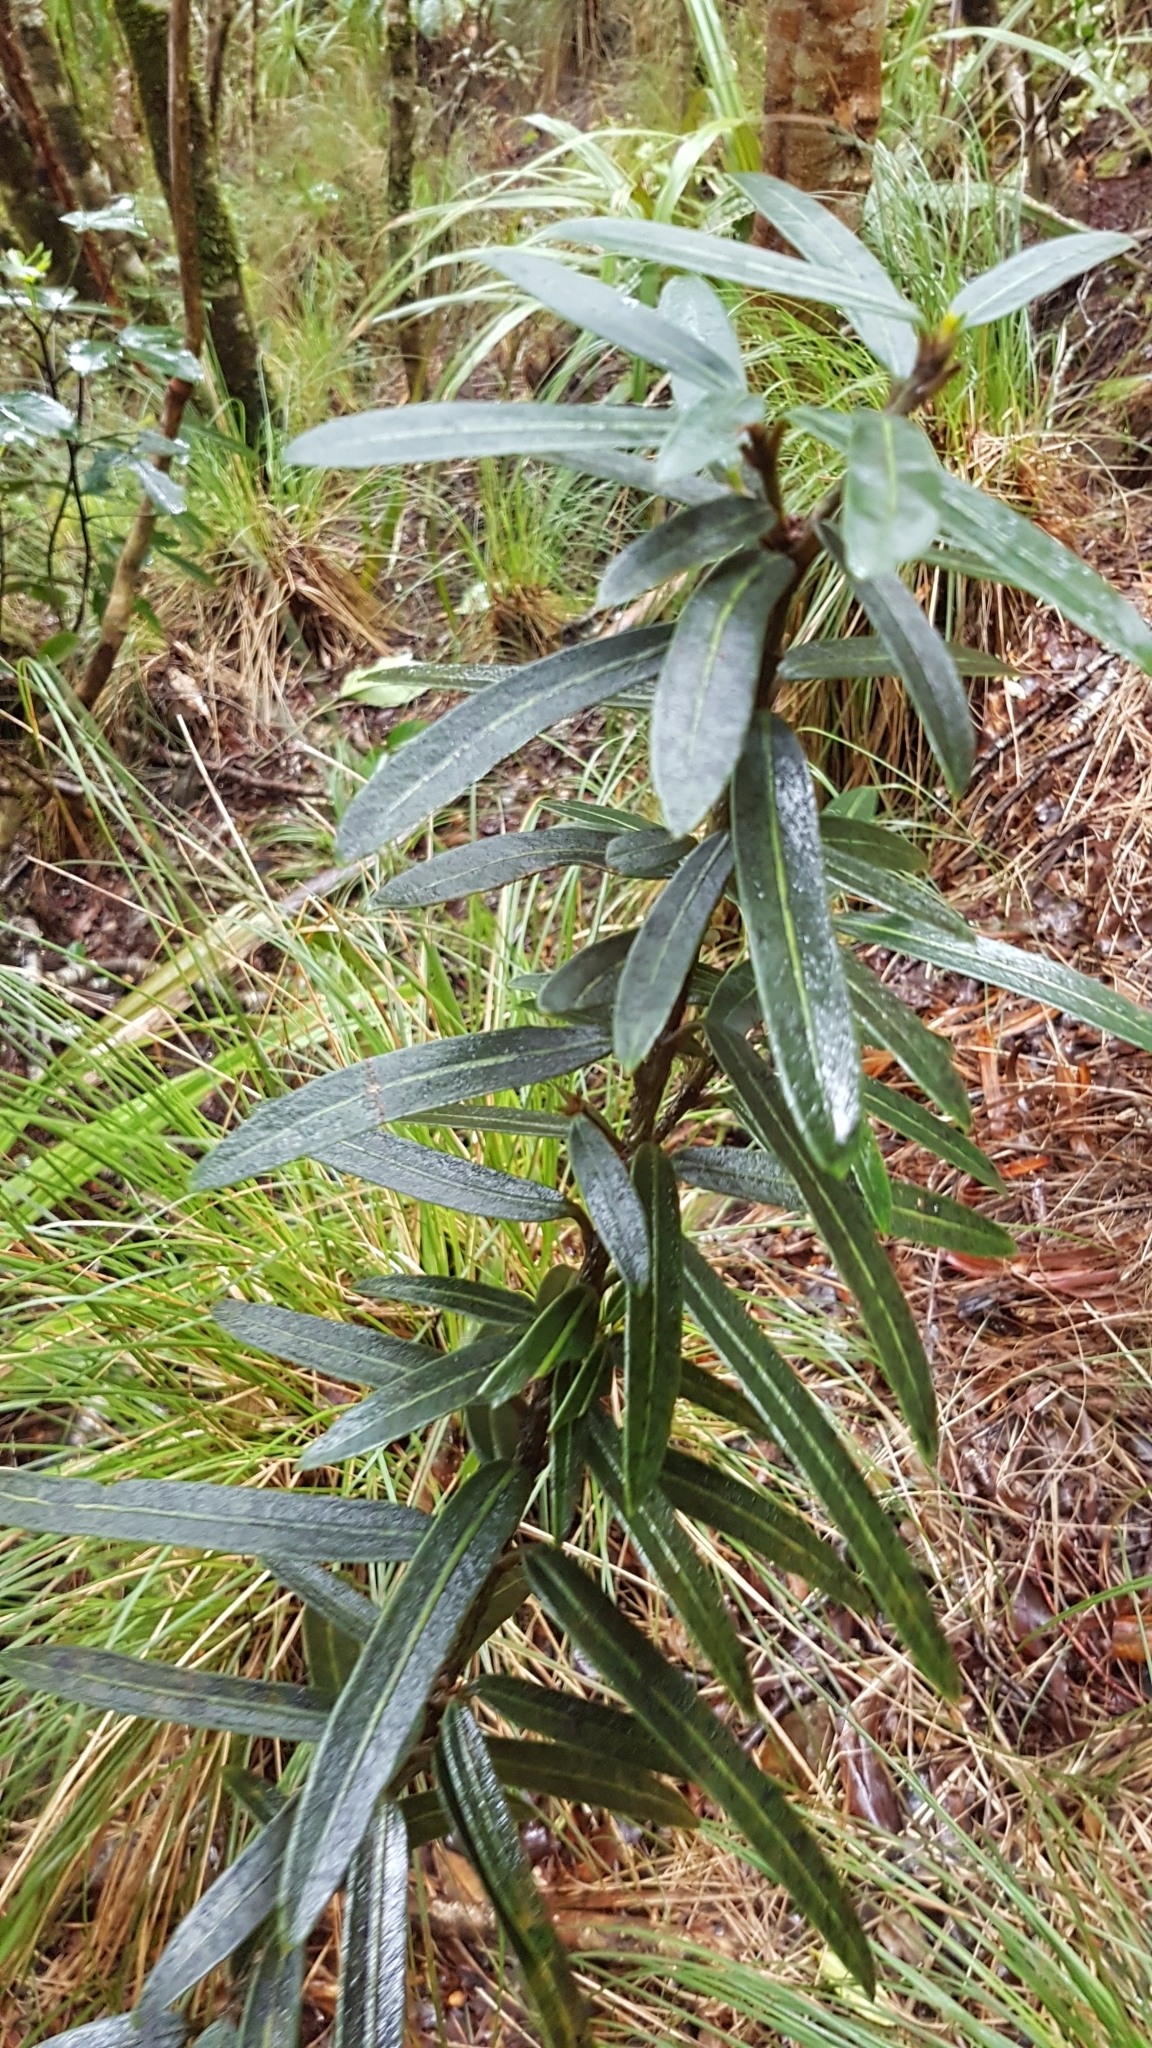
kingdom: Plantae
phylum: Tracheophyta
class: Magnoliopsida
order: Apiales
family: Araliaceae
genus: Pseudopanax
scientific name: Pseudopanax linearis
